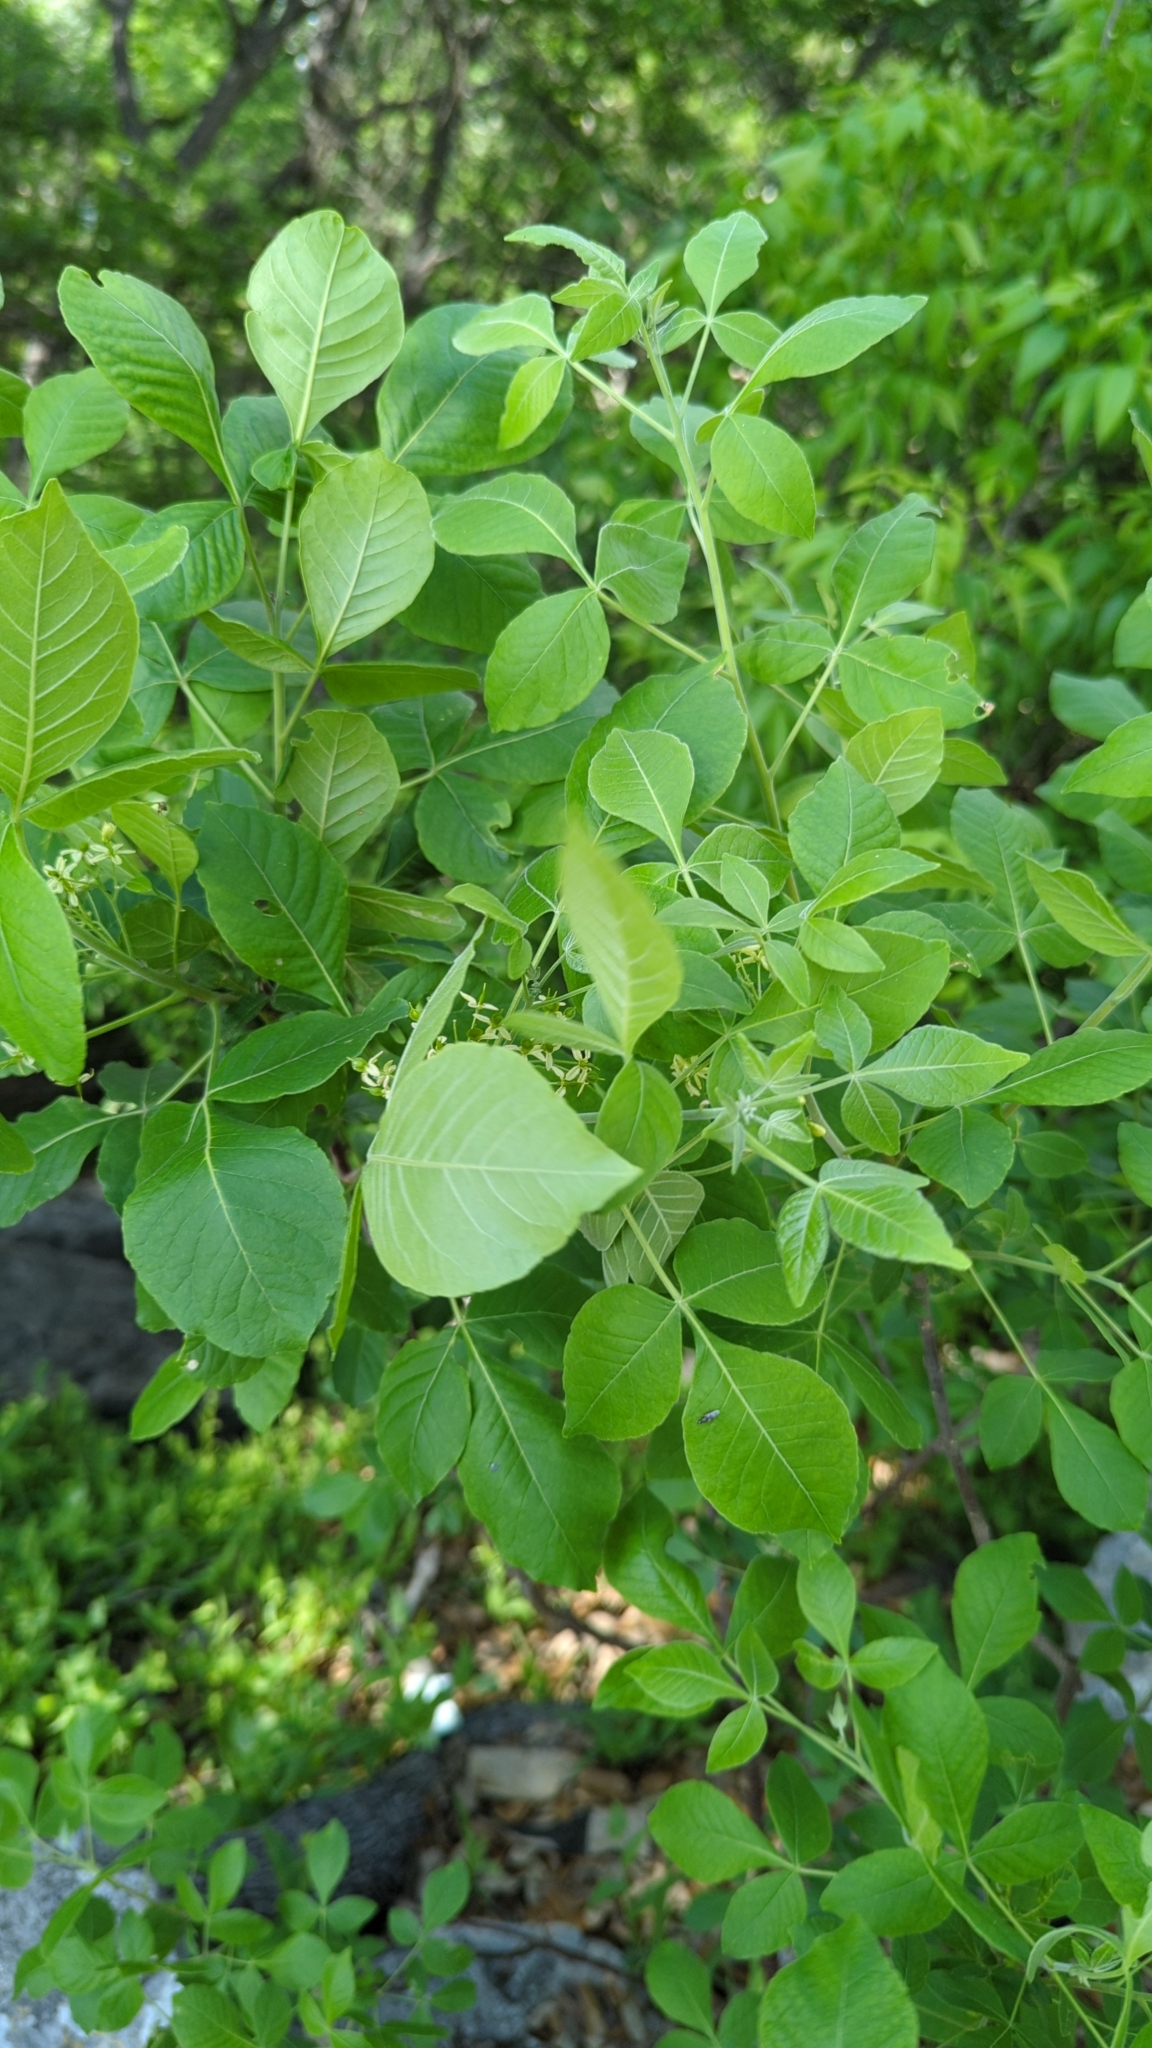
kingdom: Plantae
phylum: Tracheophyta
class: Magnoliopsida
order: Sapindales
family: Rutaceae
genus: Ptelea
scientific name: Ptelea trifoliata
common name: Common hop-tree
